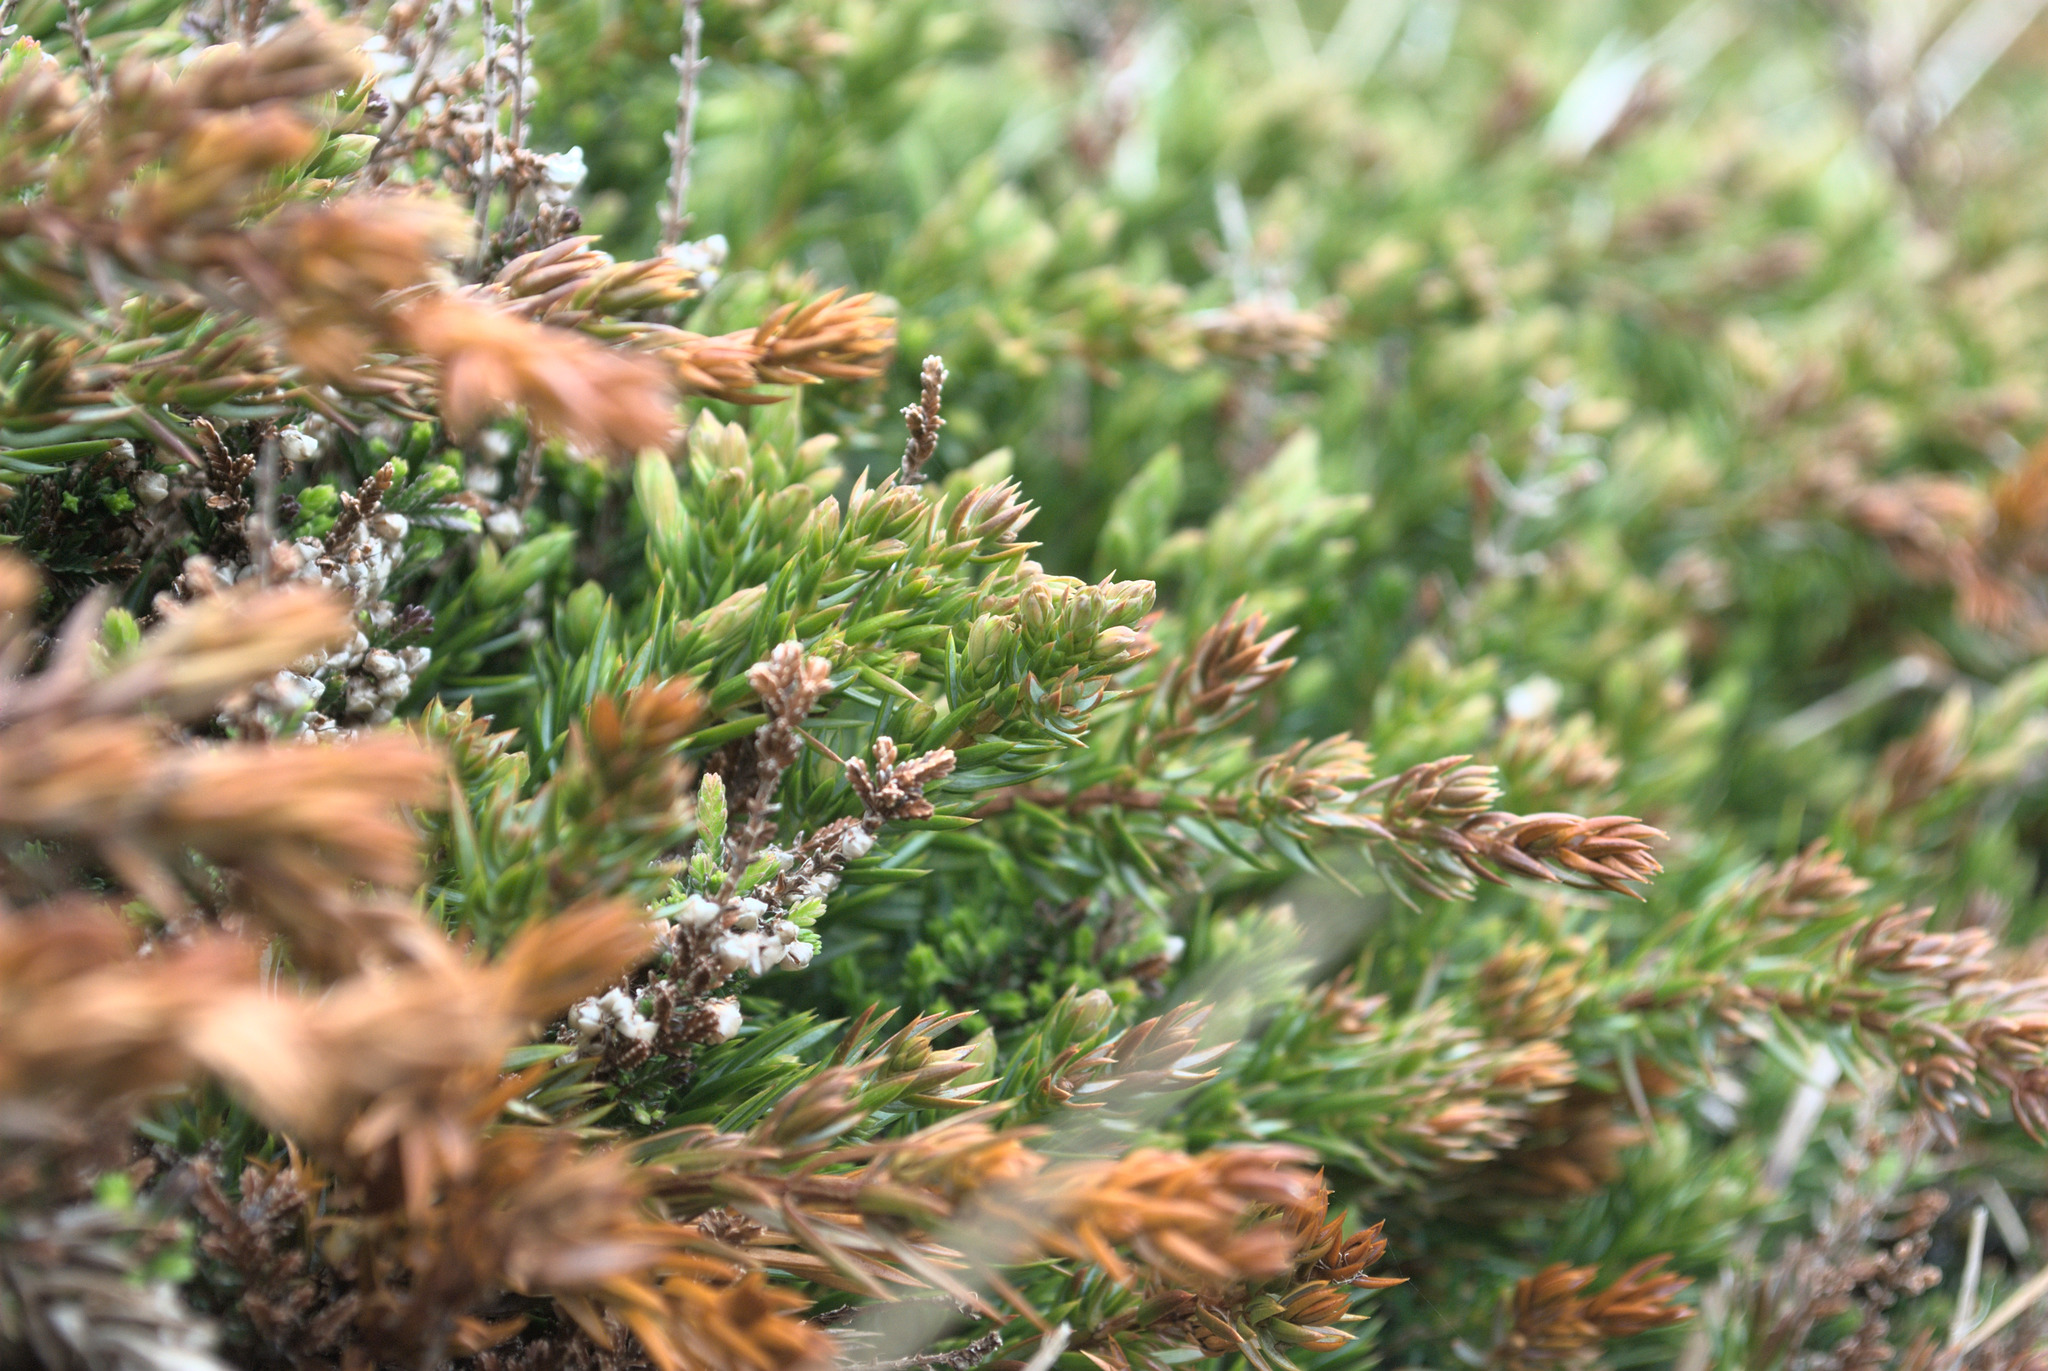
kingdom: Plantae
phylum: Tracheophyta
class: Pinopsida
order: Pinales
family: Cupressaceae
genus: Juniperus
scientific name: Juniperus communis
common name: Common juniper
